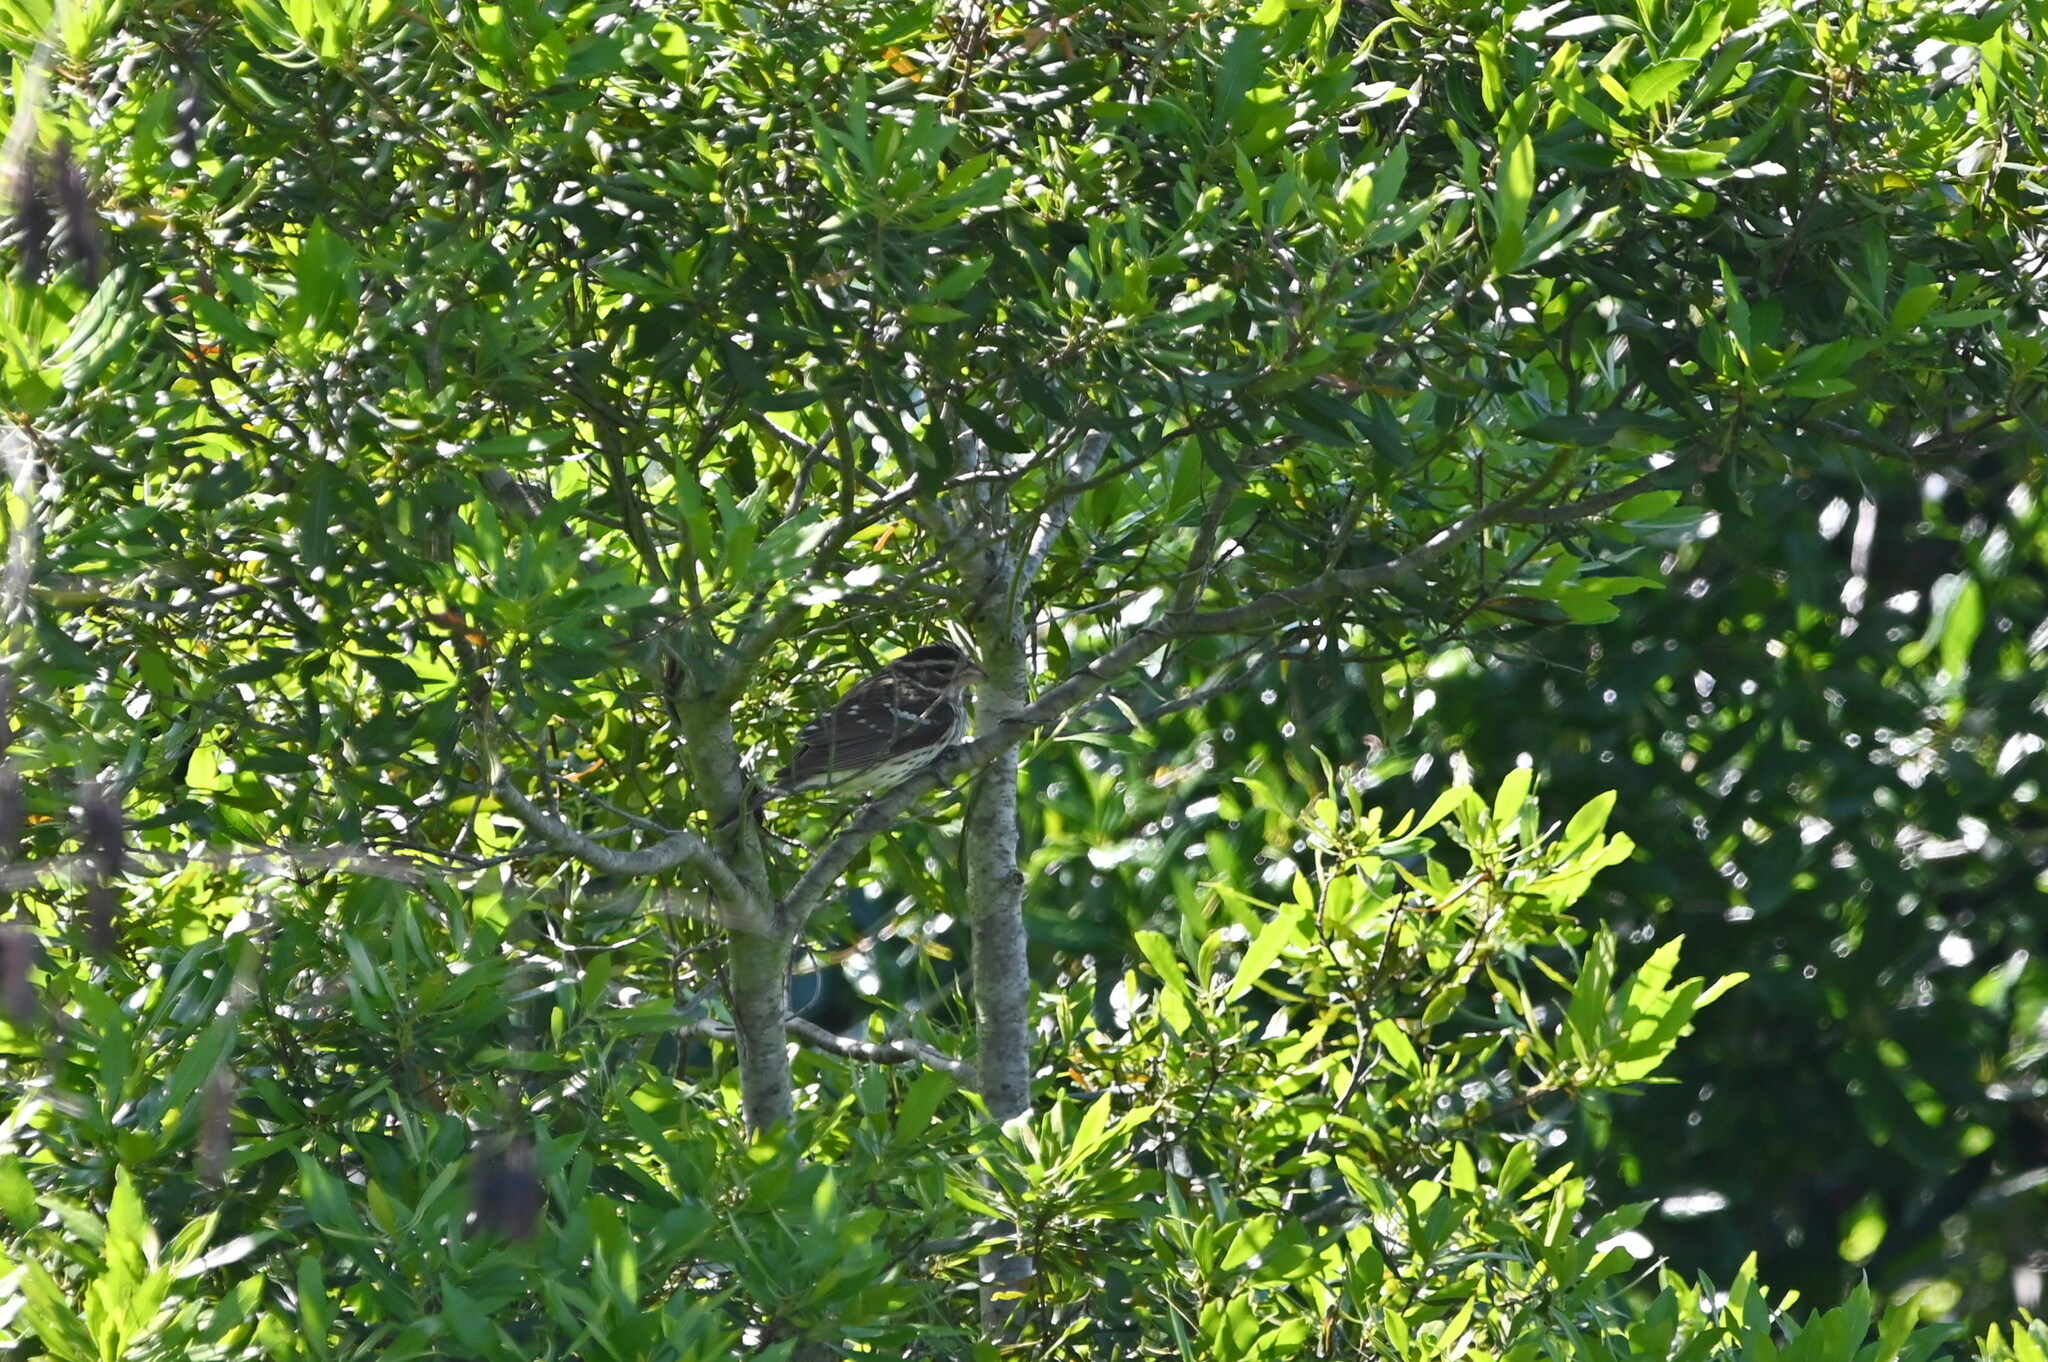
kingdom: Animalia
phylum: Chordata
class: Aves
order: Passeriformes
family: Cardinalidae
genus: Pheucticus
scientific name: Pheucticus ludovicianus
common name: Rose-breasted grosbeak
